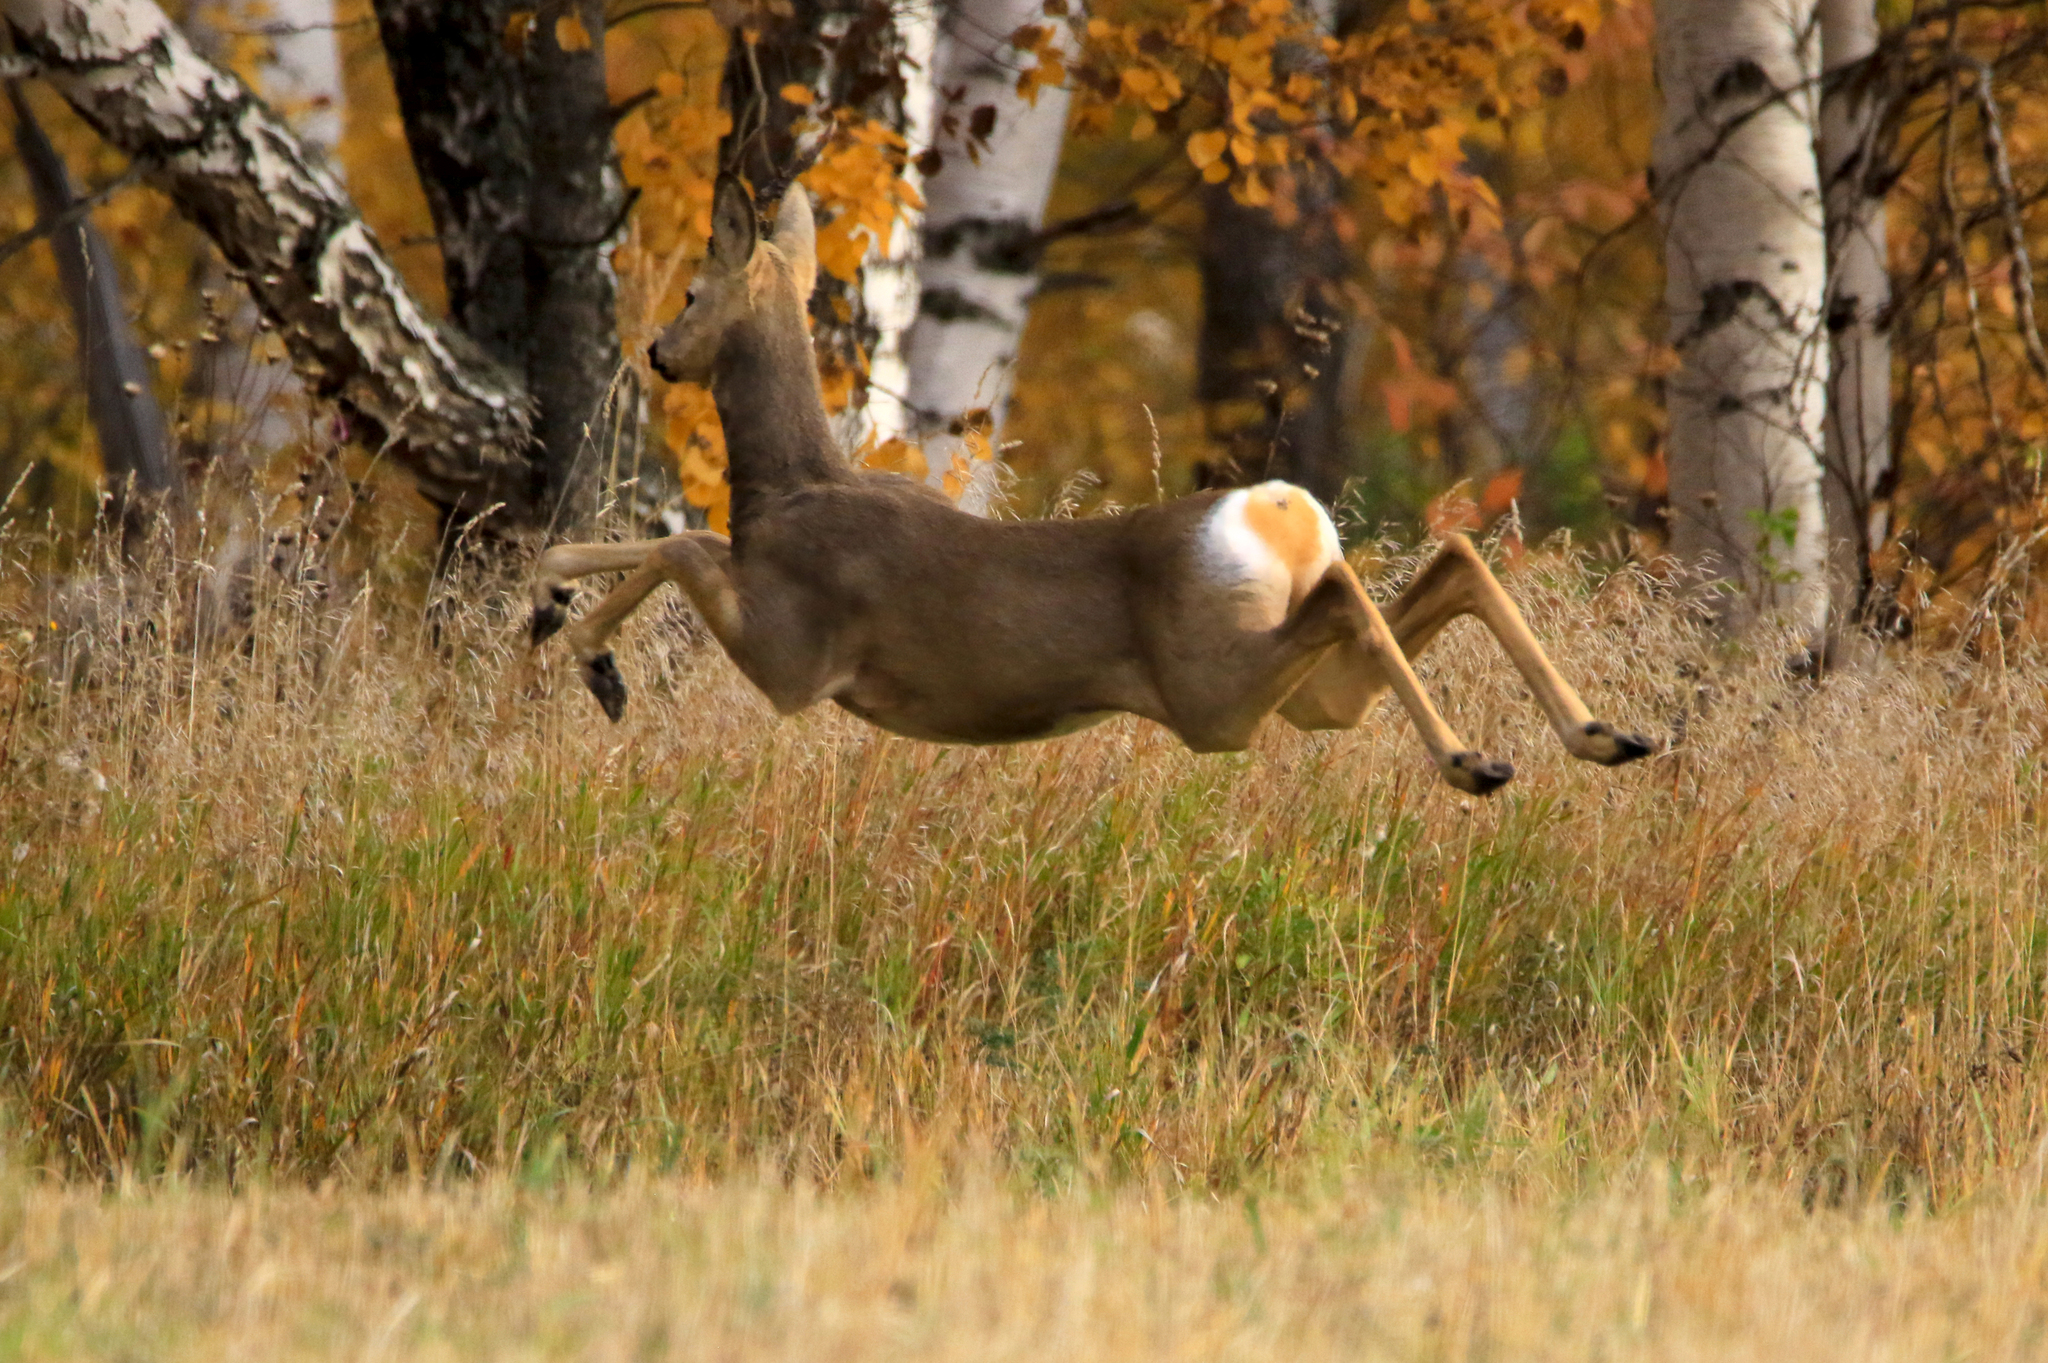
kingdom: Animalia
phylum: Chordata
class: Mammalia
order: Artiodactyla
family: Cervidae
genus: Capreolus
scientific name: Capreolus pygargus
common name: Siberian roe
